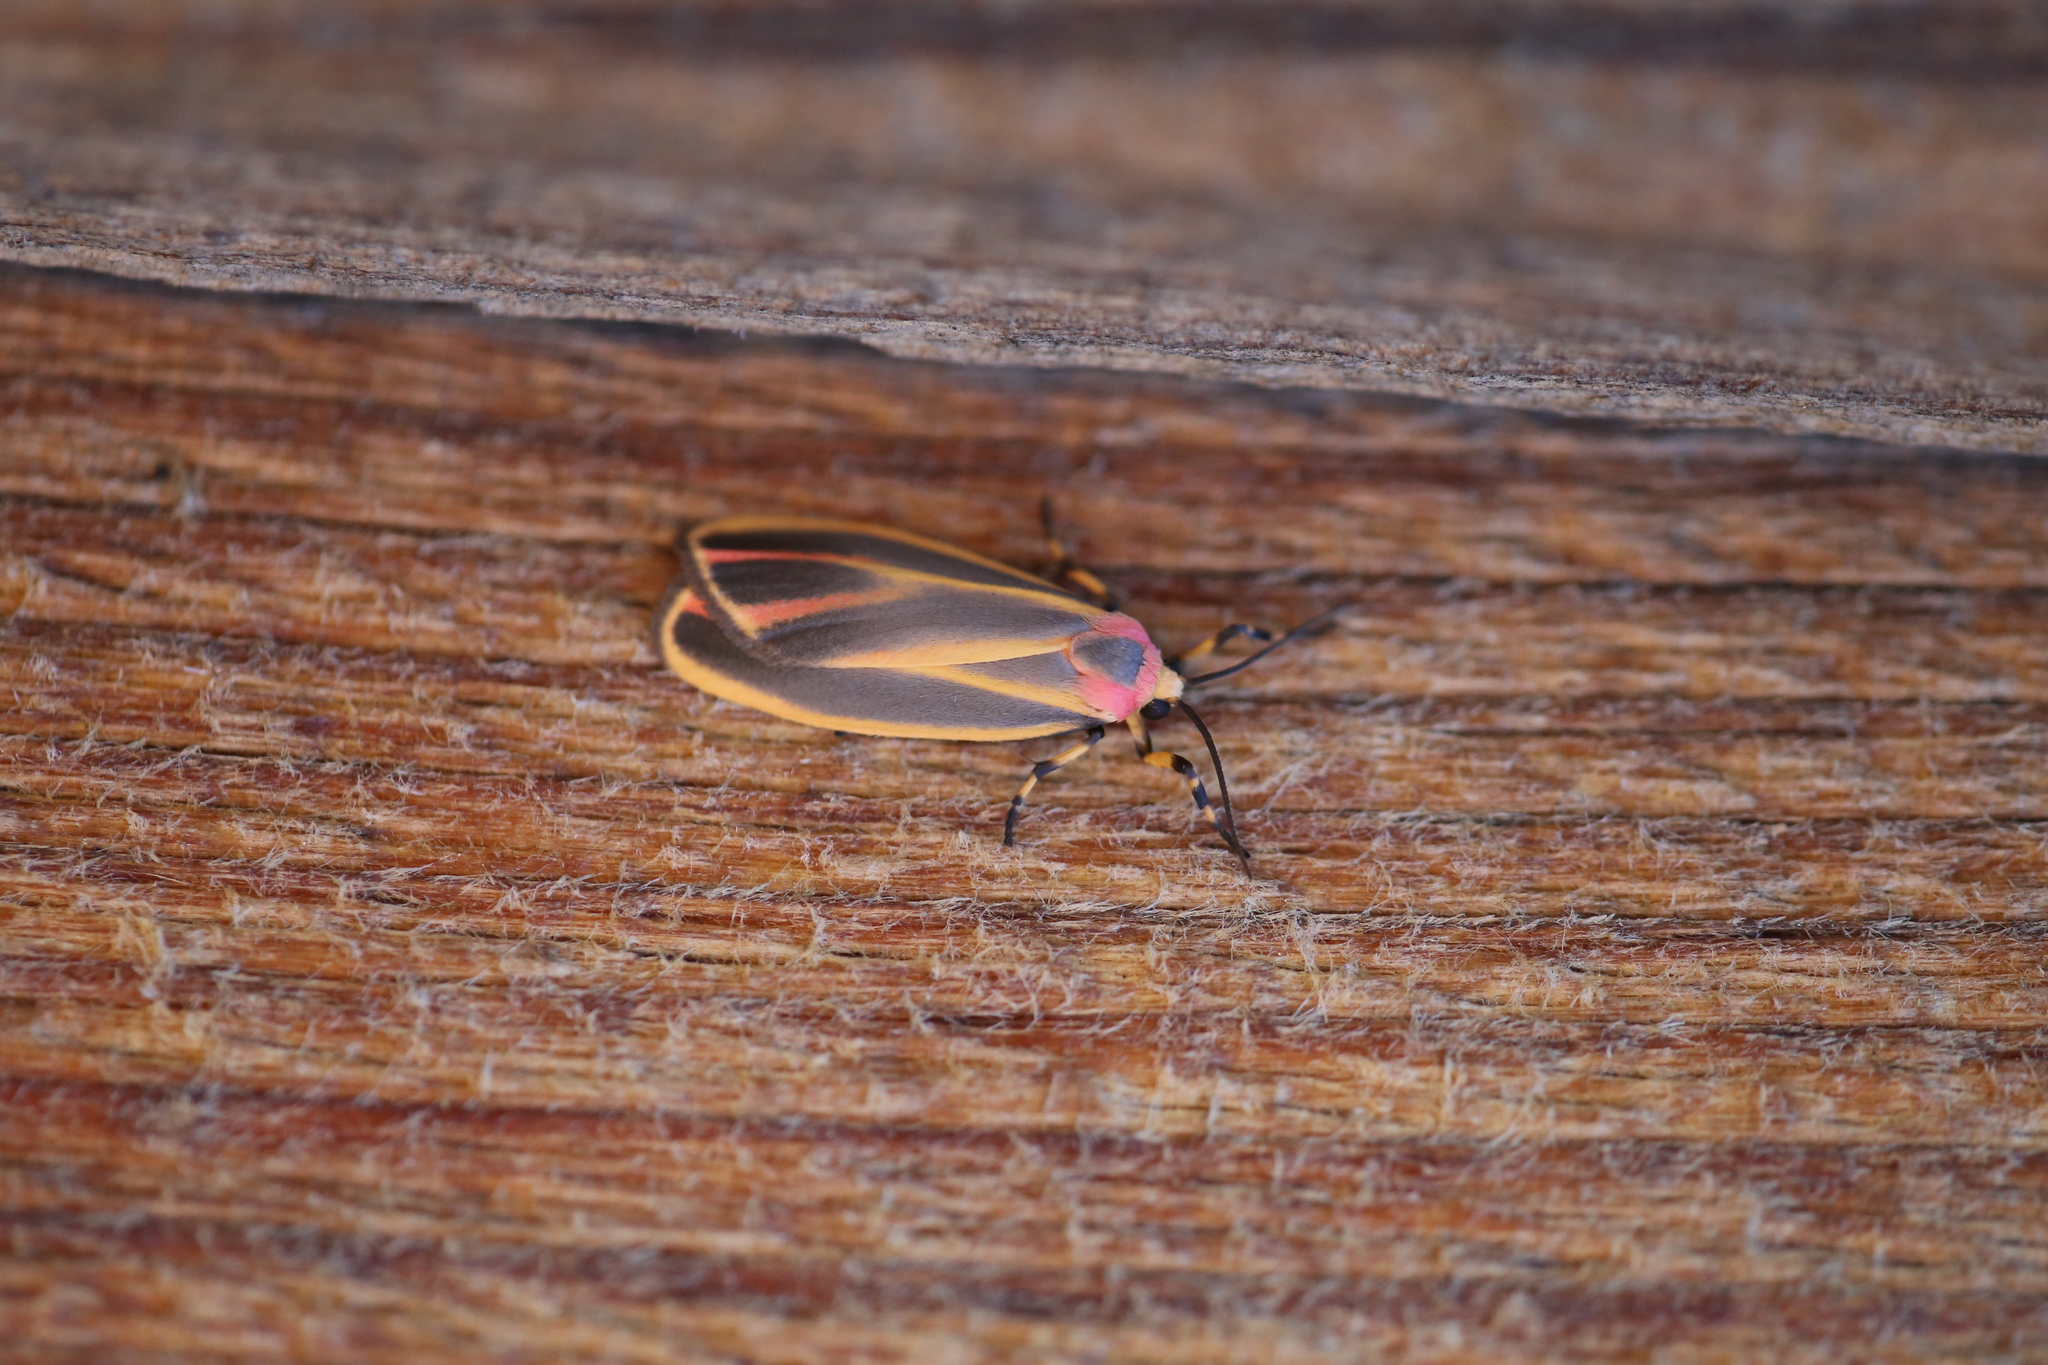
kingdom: Animalia
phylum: Arthropoda
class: Insecta
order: Lepidoptera
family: Erebidae
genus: Hypoprepia
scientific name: Hypoprepia fucosa
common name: Painted lichen moth
